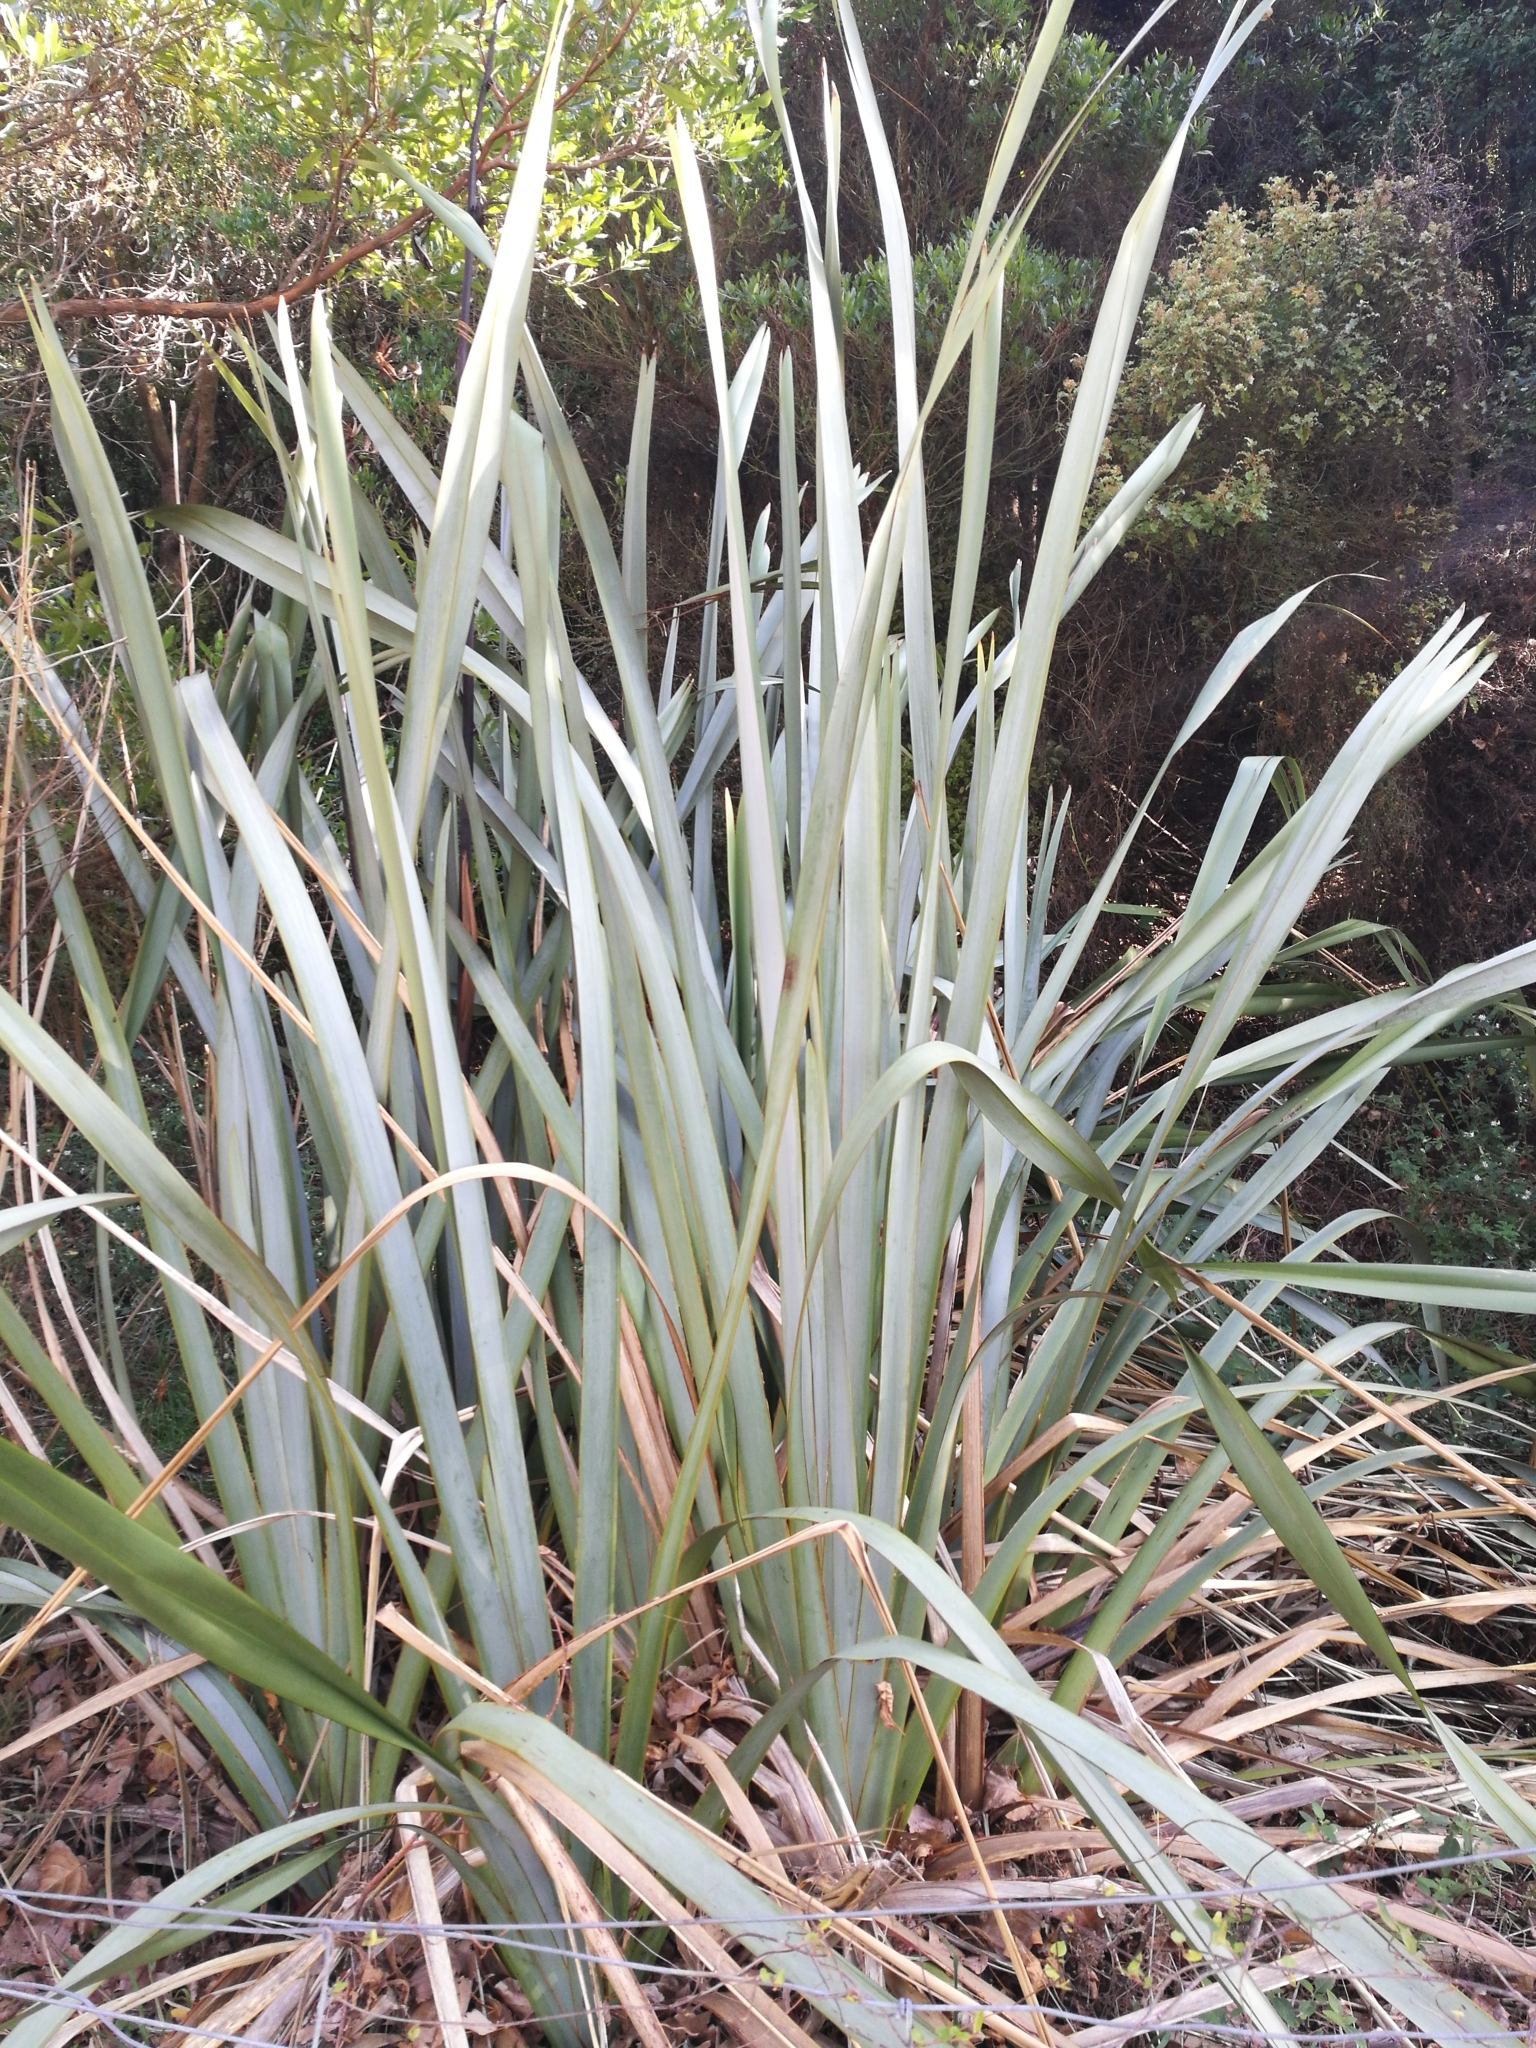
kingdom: Plantae
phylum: Tracheophyta
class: Liliopsida
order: Asparagales
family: Asphodelaceae
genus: Phormium
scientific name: Phormium tenax
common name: New zealand flax
